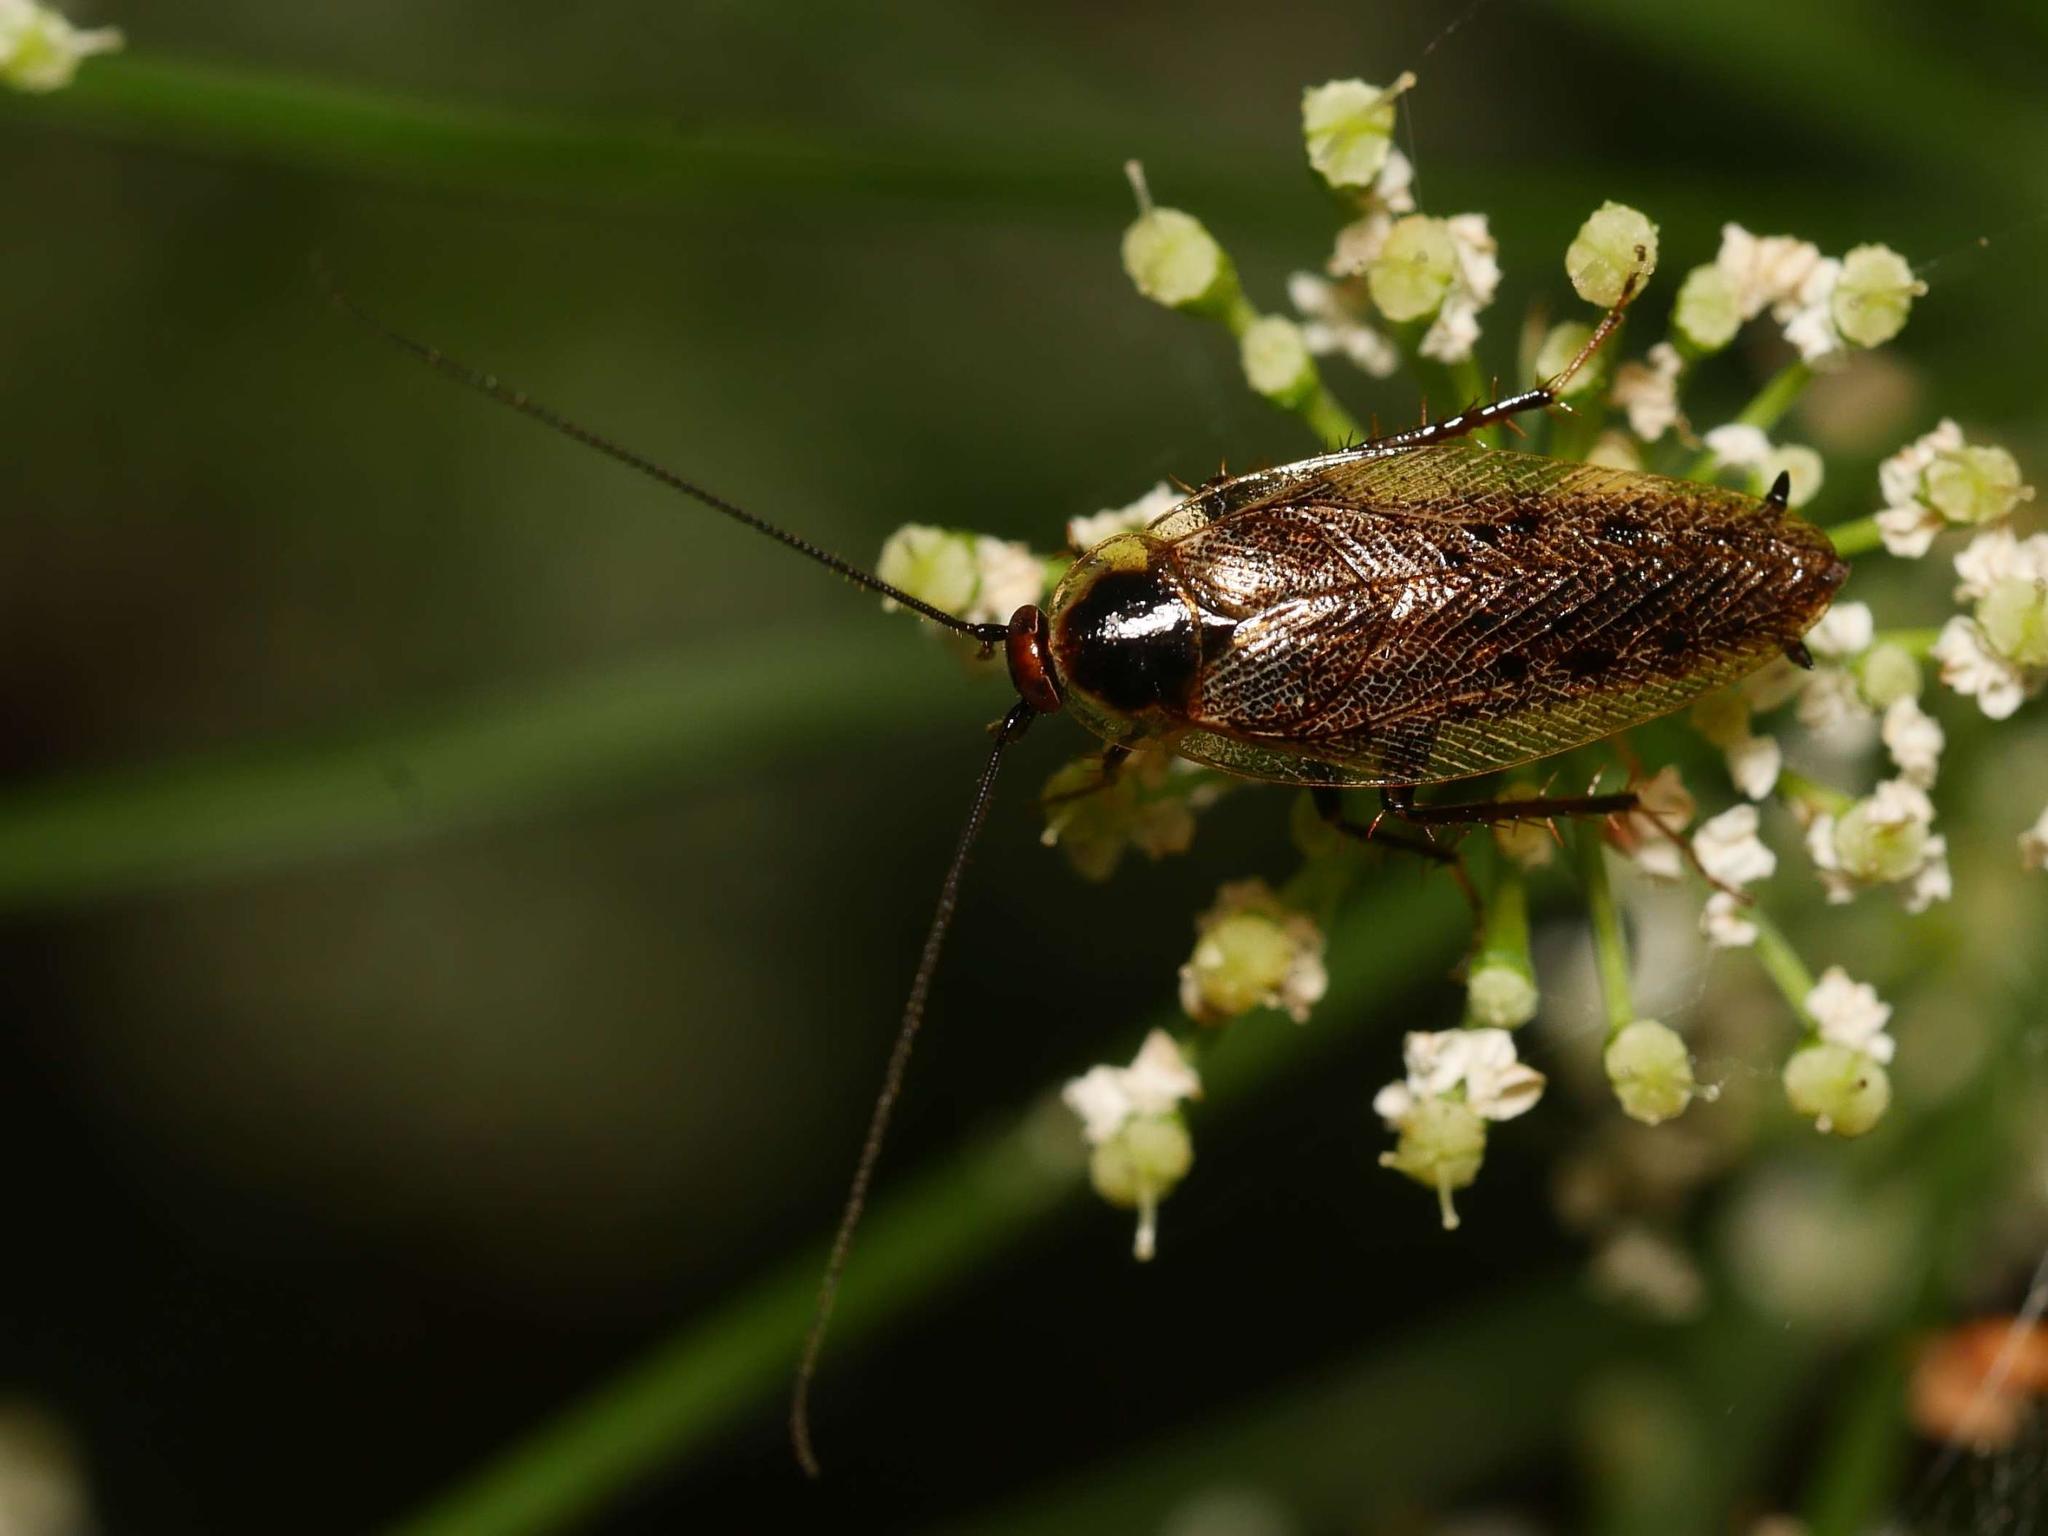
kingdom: Animalia
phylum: Arthropoda
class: Insecta
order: Blattodea
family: Ectobiidae
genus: Ectobius
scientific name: Ectobius lapponicus
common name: Dusky cockroach
